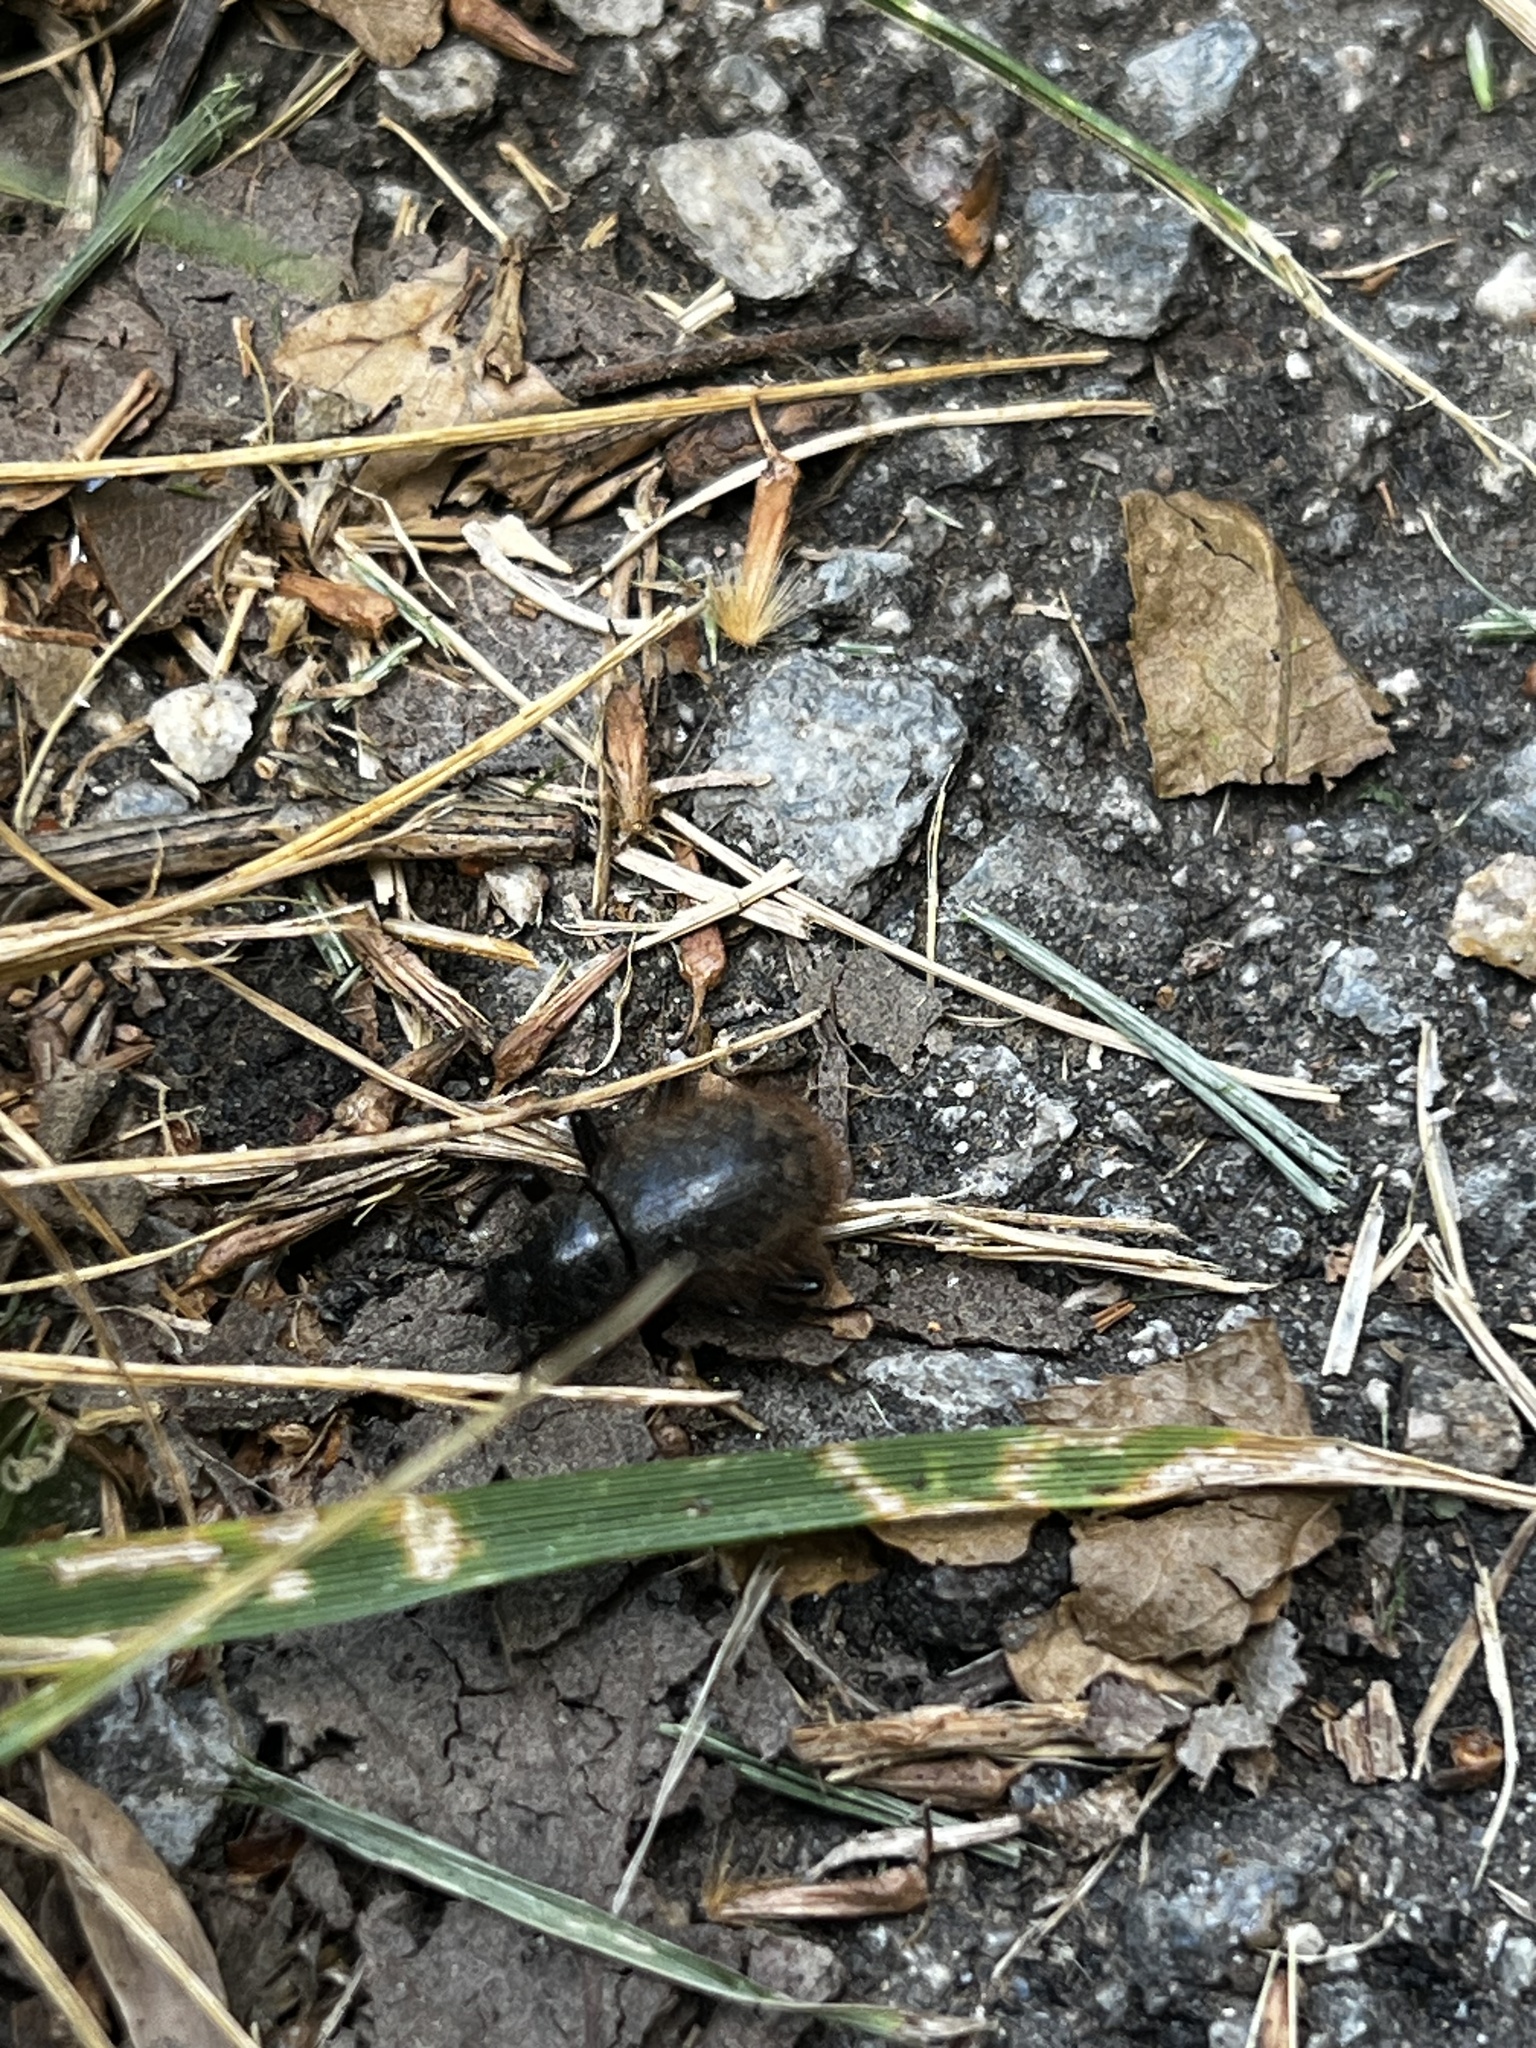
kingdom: Animalia
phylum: Arthropoda
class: Insecta
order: Coleoptera
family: Tenebrionidae
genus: Eleodes
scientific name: Eleodes osculans
